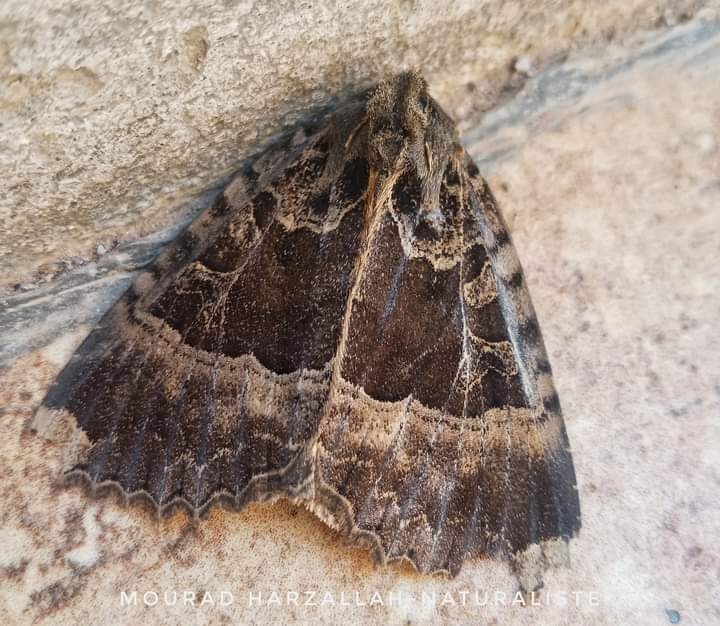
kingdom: Animalia
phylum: Arthropoda
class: Insecta
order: Lepidoptera
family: Noctuidae
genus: Mormo
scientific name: Mormo maura
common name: Old lady
